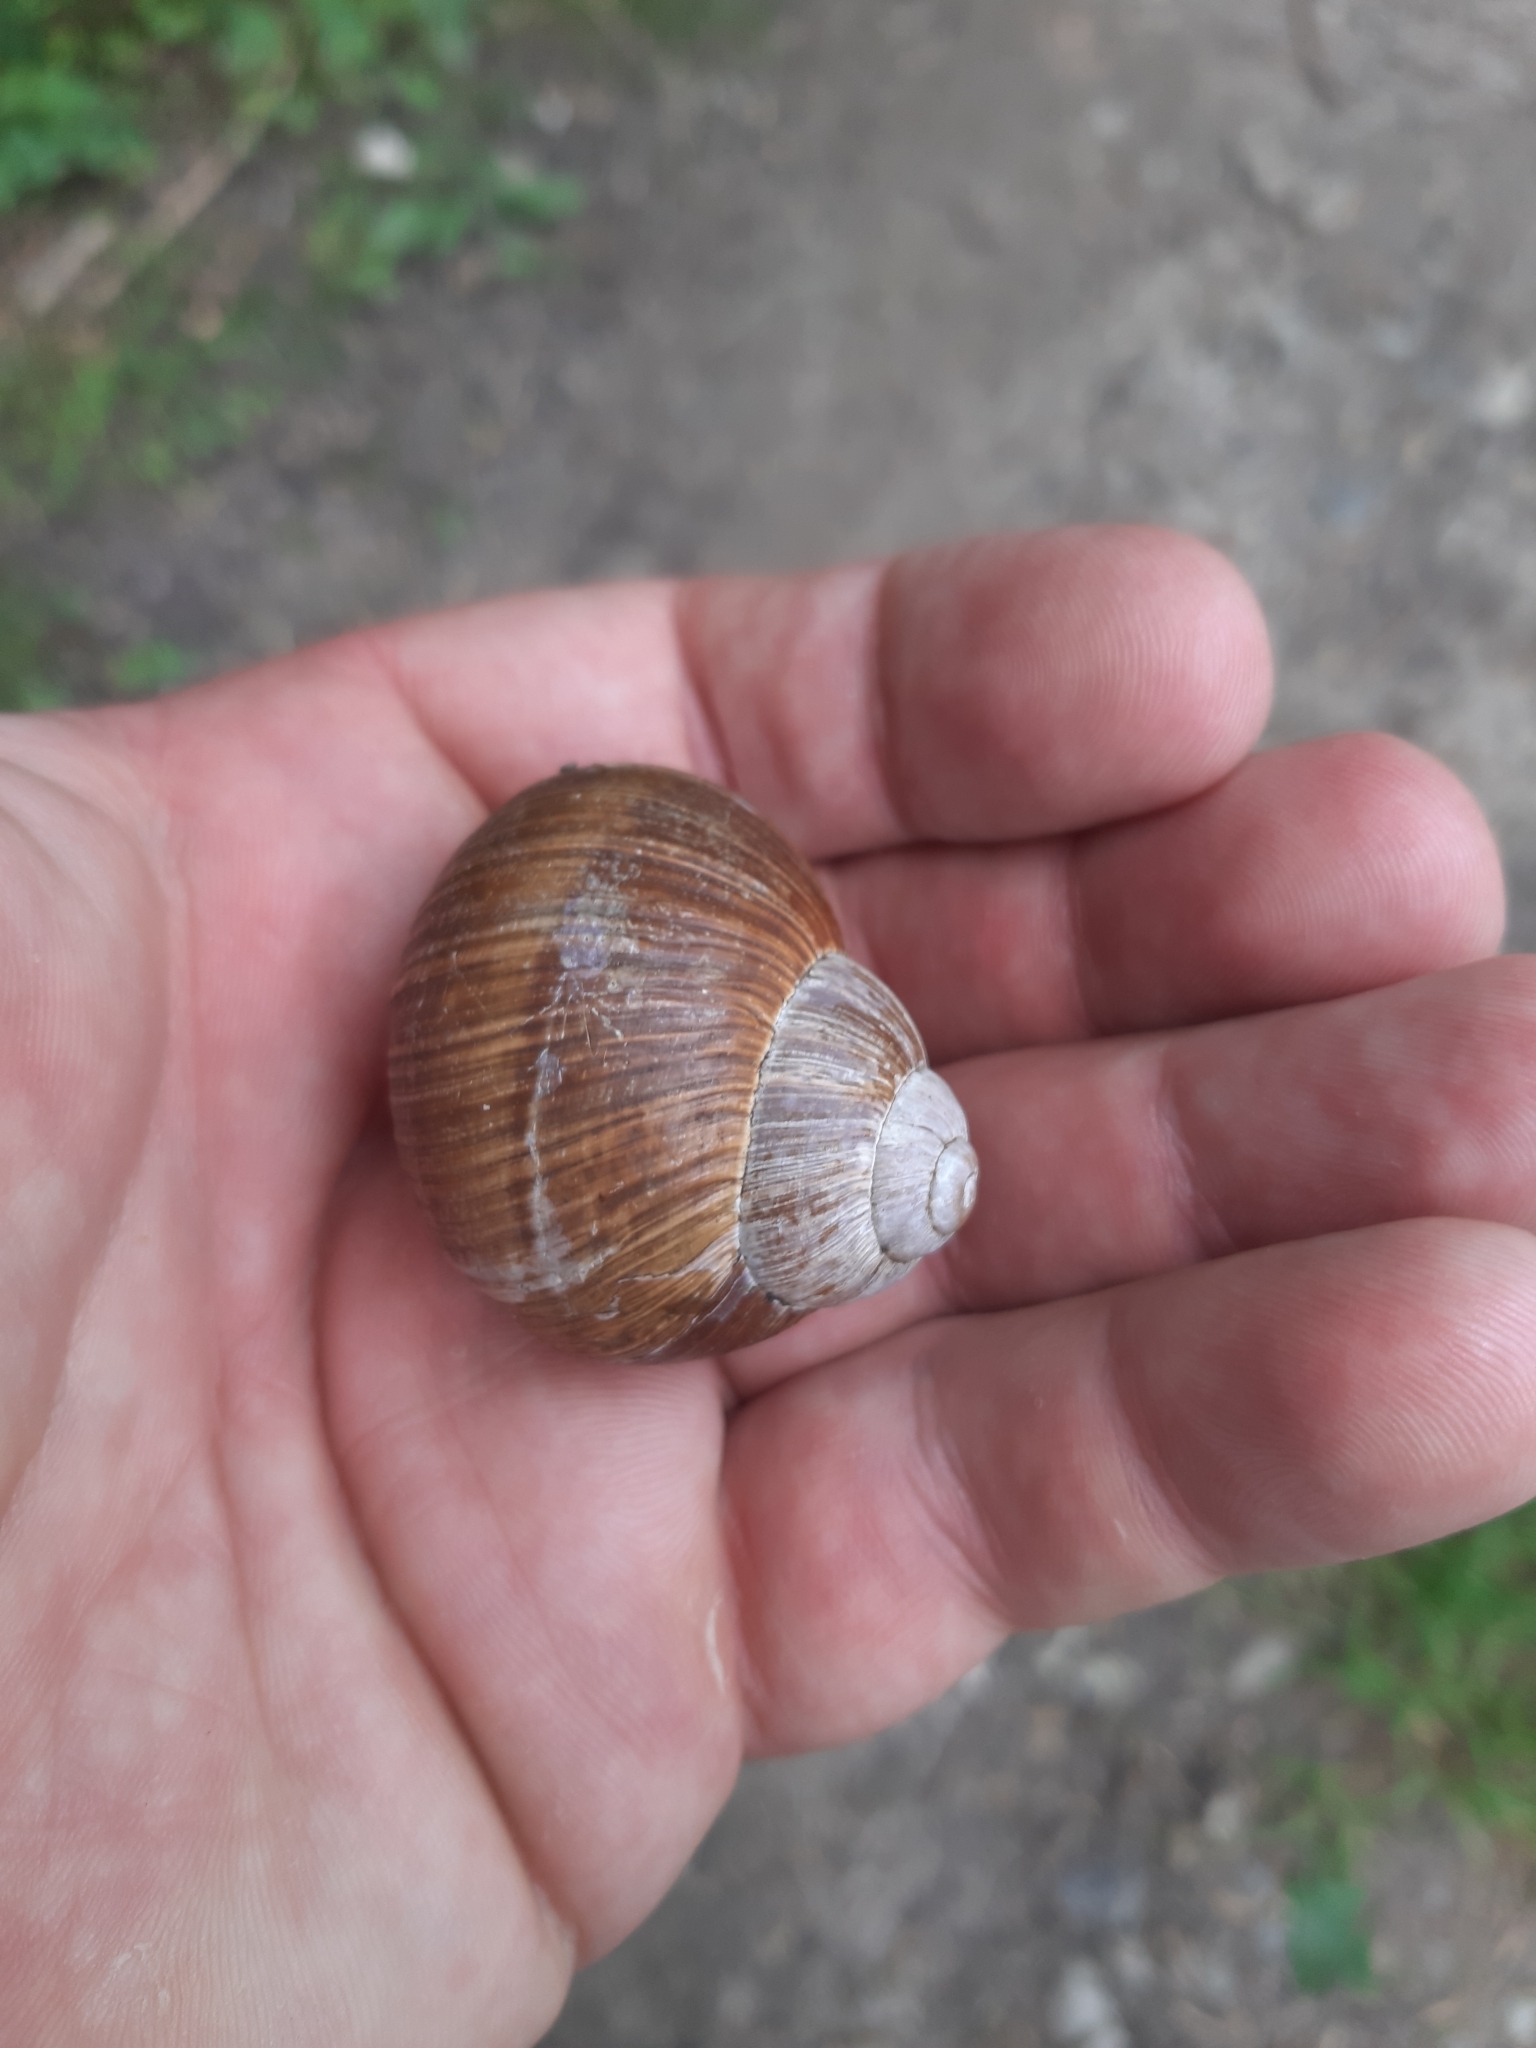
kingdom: Animalia
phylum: Mollusca
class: Gastropoda
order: Stylommatophora
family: Helicidae
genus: Helix
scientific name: Helix pomatia
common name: Roman snail
